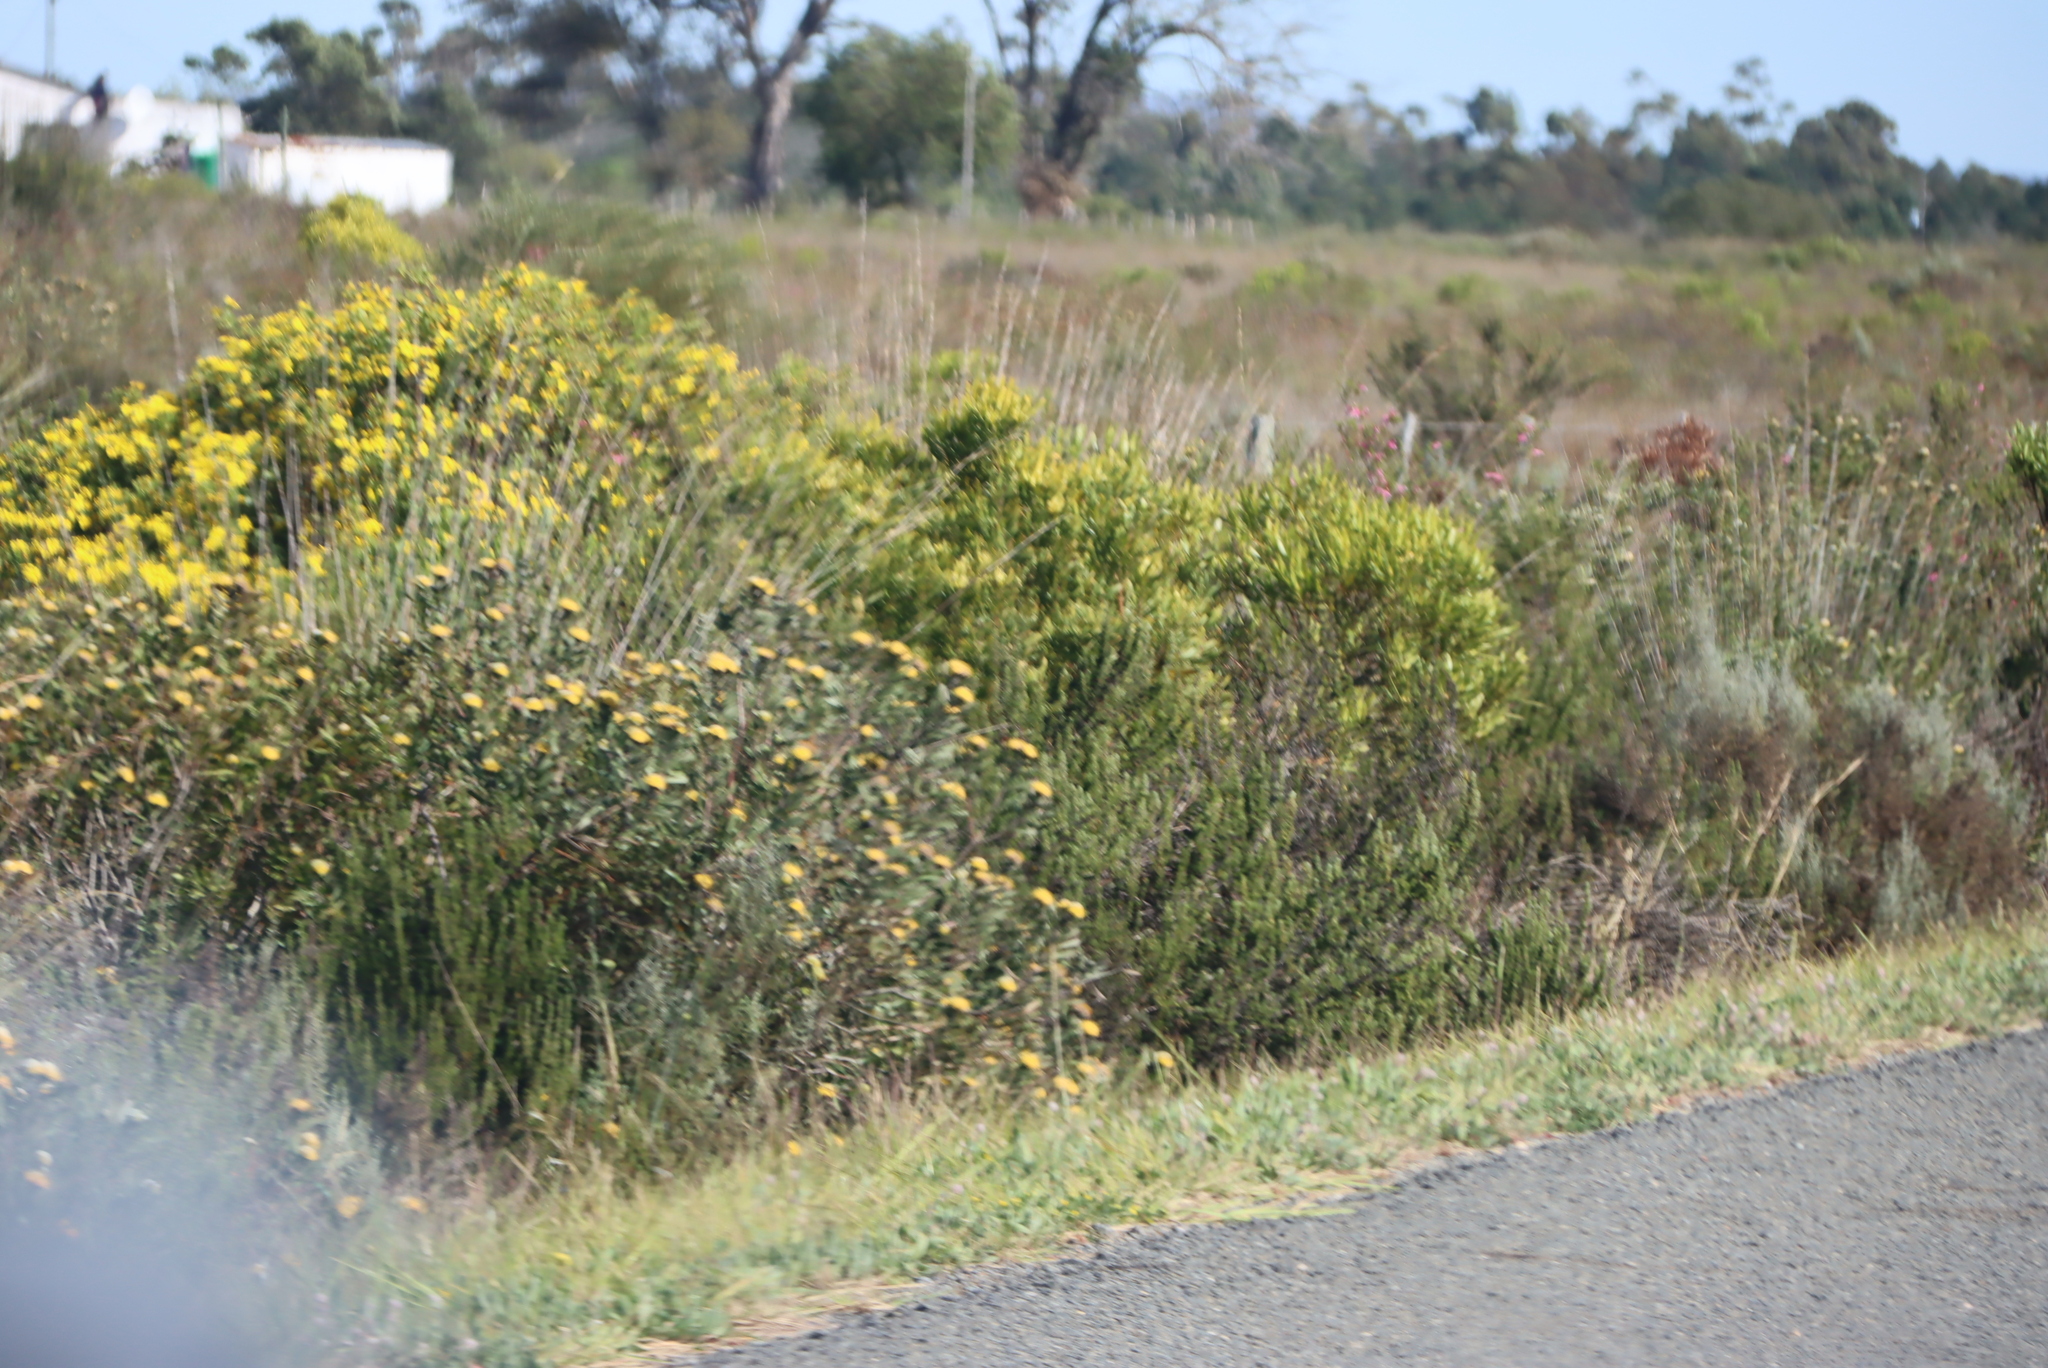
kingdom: Plantae
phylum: Tracheophyta
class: Magnoliopsida
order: Proteales
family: Proteaceae
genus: Leucospermum
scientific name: Leucospermum muirii
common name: Albertinia pincushion
